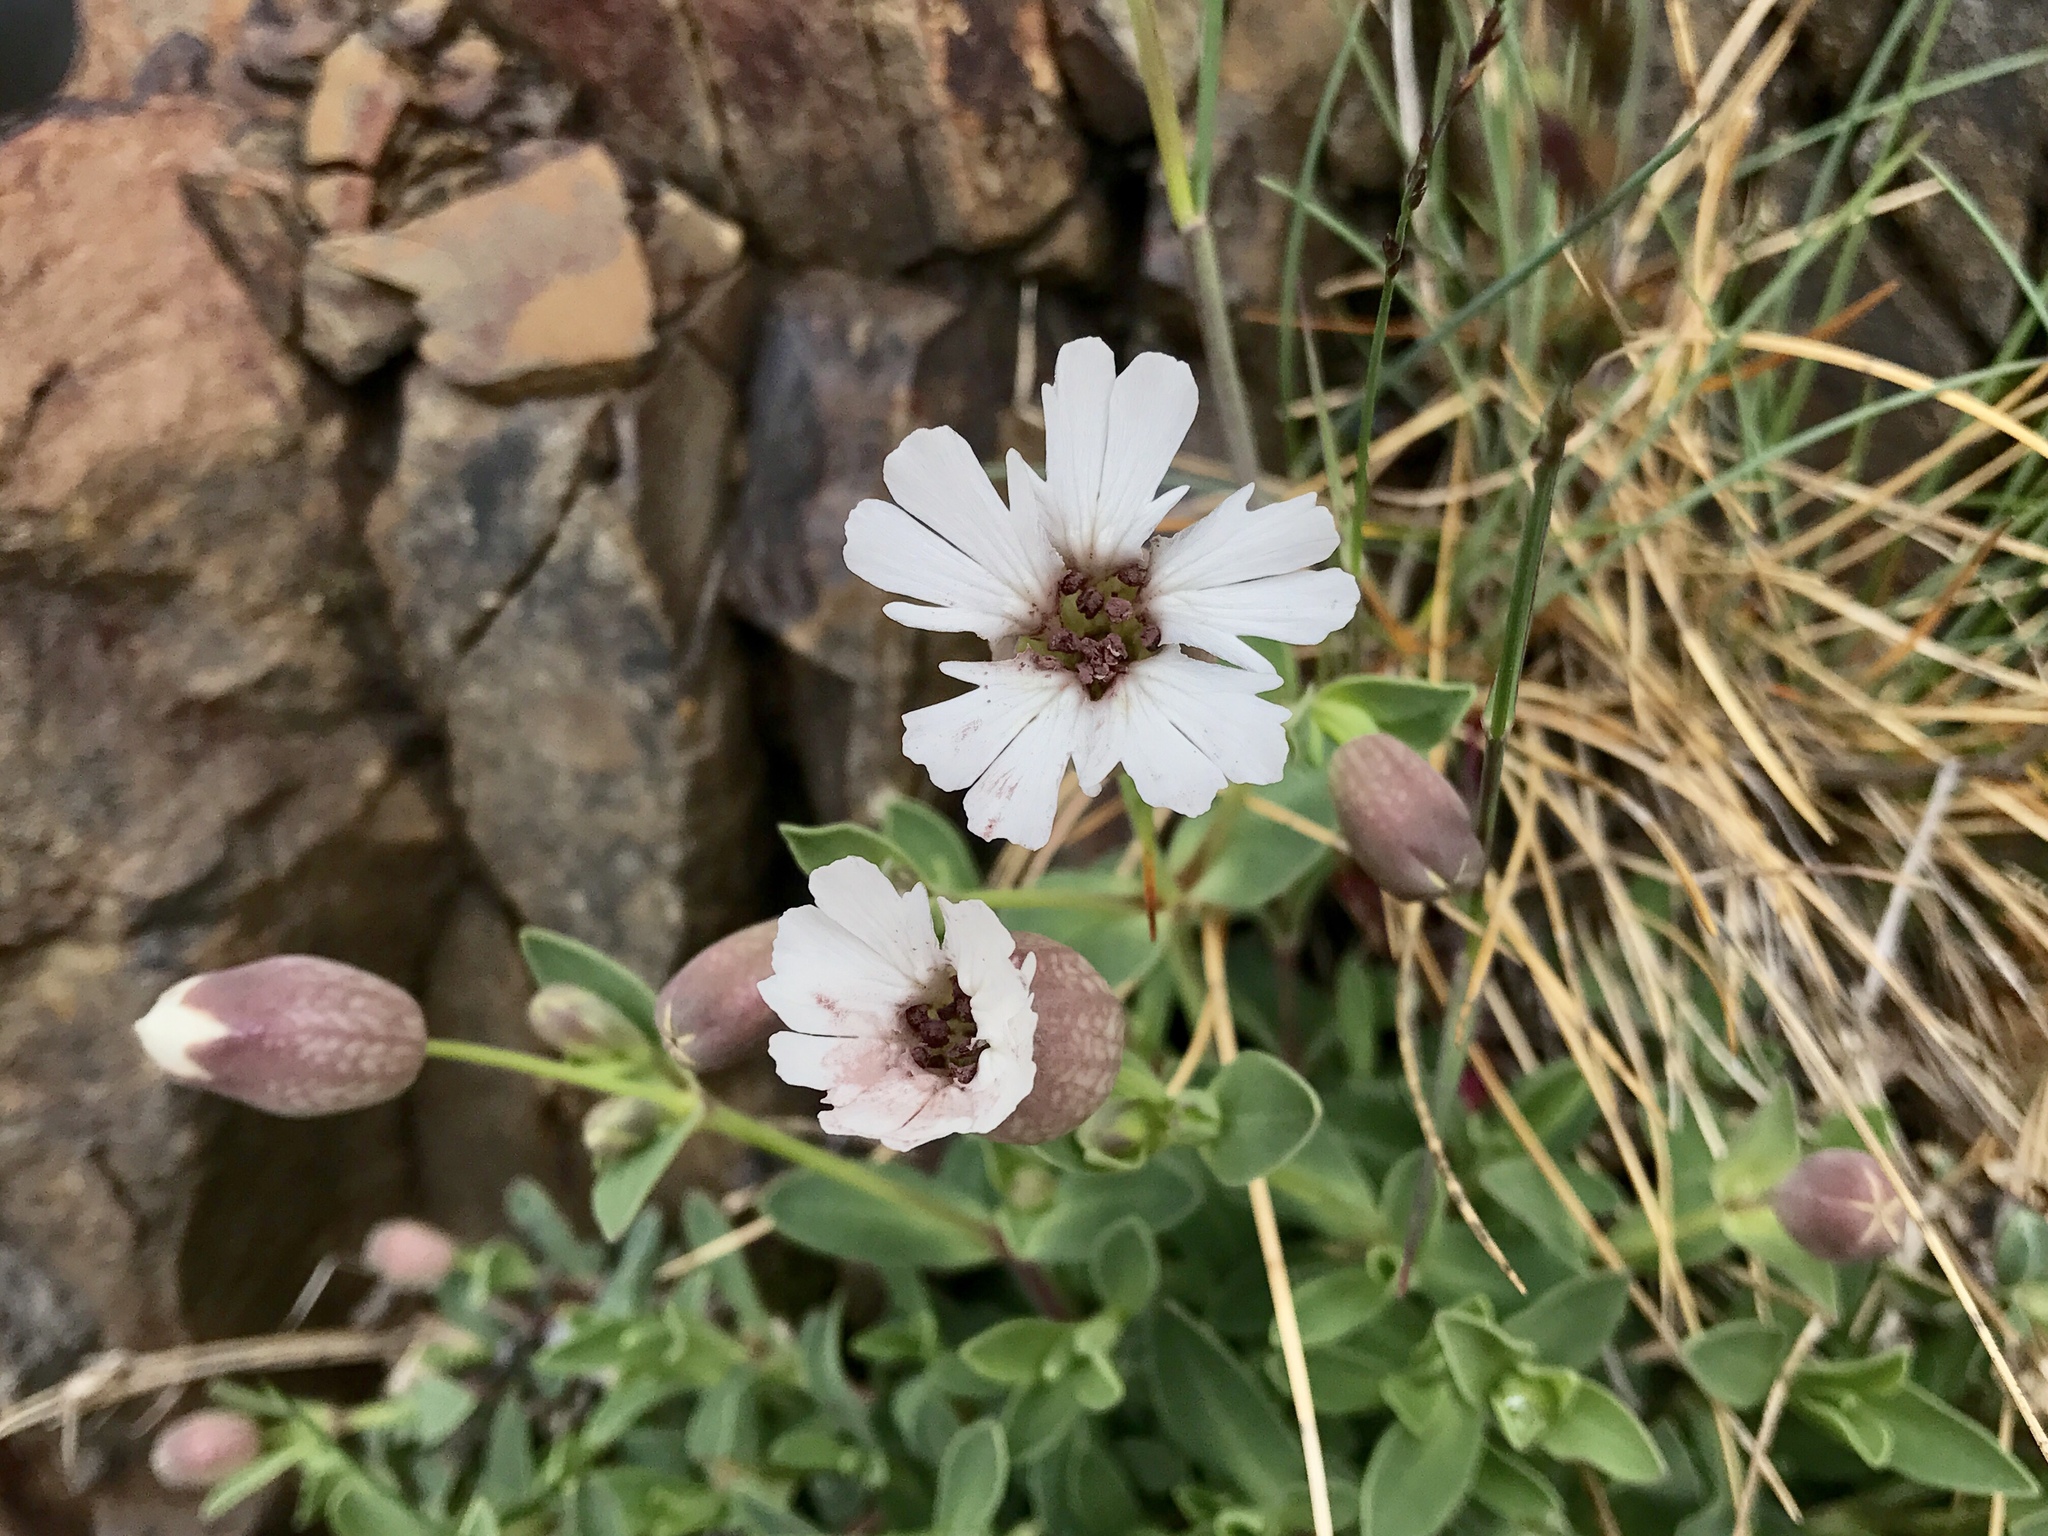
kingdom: Plantae
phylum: Tracheophyta
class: Magnoliopsida
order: Caryophyllales
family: Caryophyllaceae
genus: Silene
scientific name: Silene uniflora
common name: Sea campion
